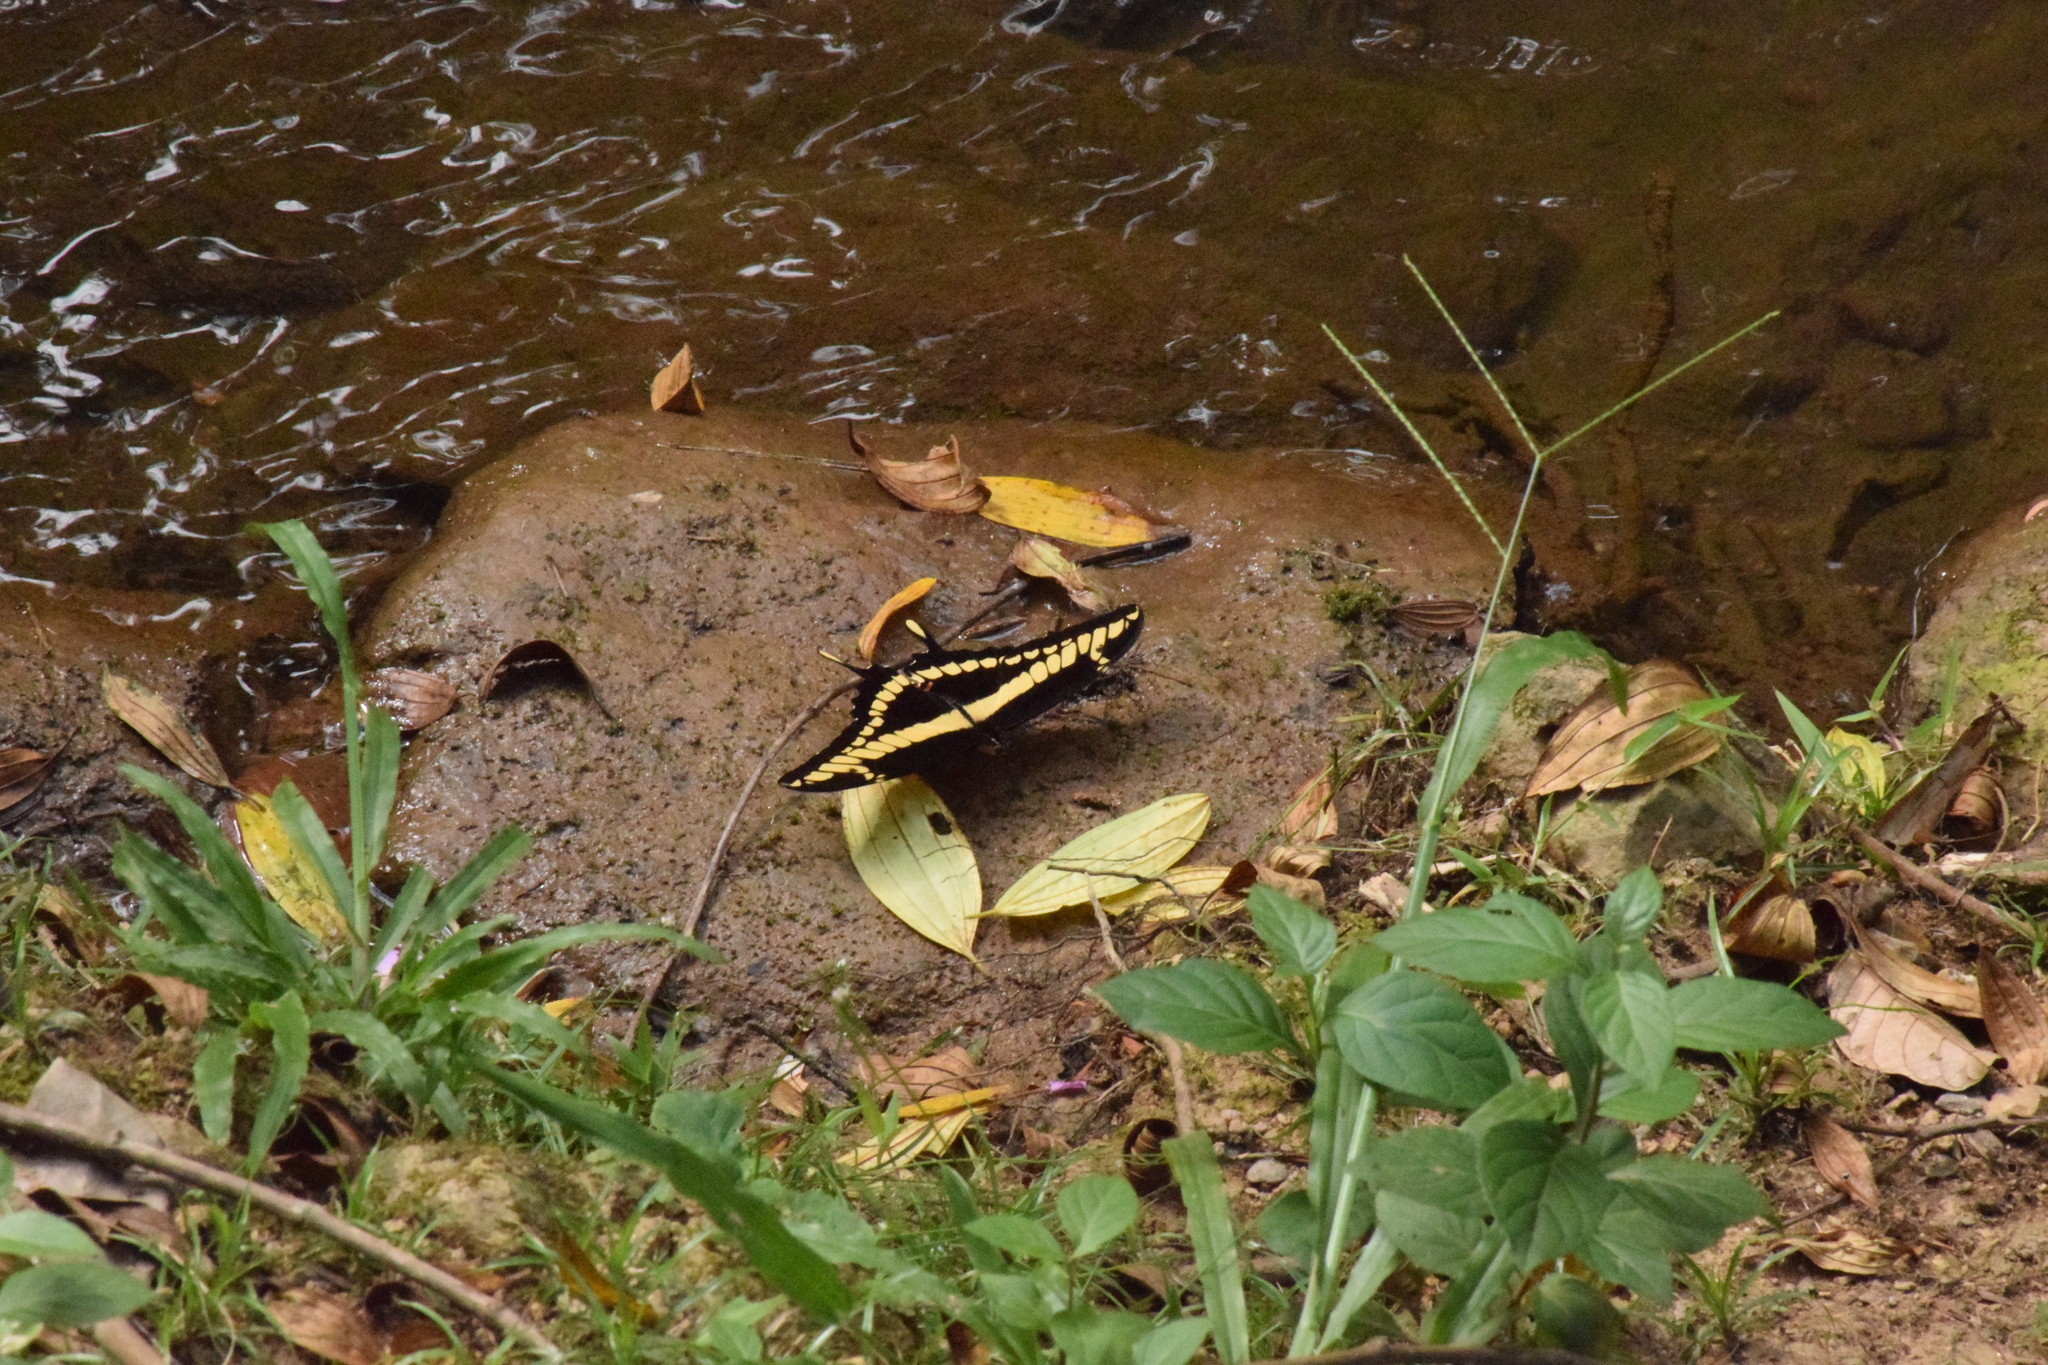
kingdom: Animalia
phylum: Arthropoda
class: Insecta
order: Lepidoptera
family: Papilionidae
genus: Papilio
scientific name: Papilio thoas
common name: King swallowtail
